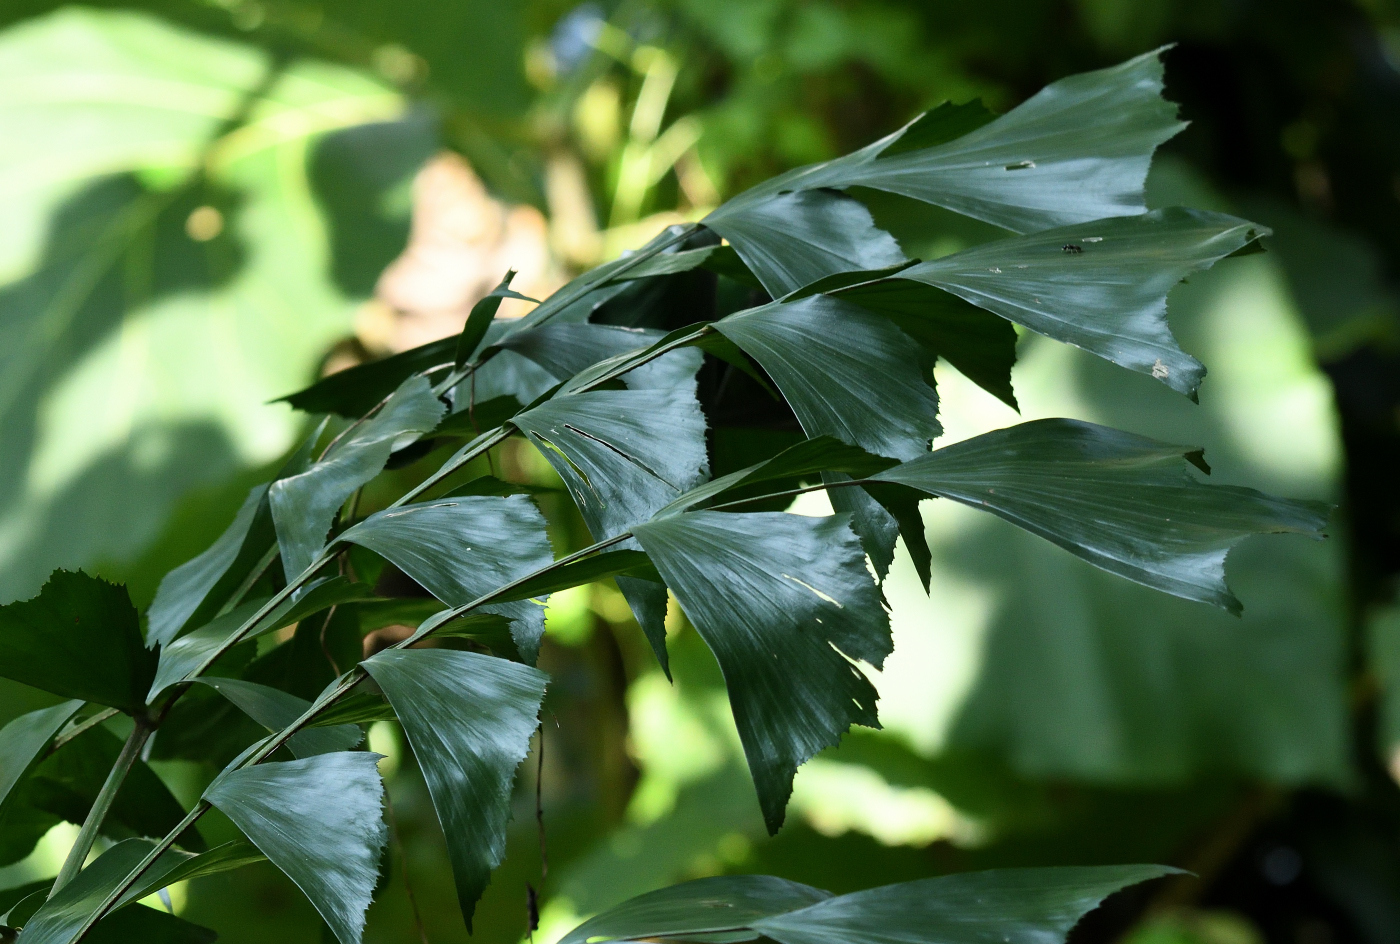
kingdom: Plantae
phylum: Tracheophyta
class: Liliopsida
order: Arecales
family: Arecaceae
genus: Caryota
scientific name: Caryota urens
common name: Jaggery palm
